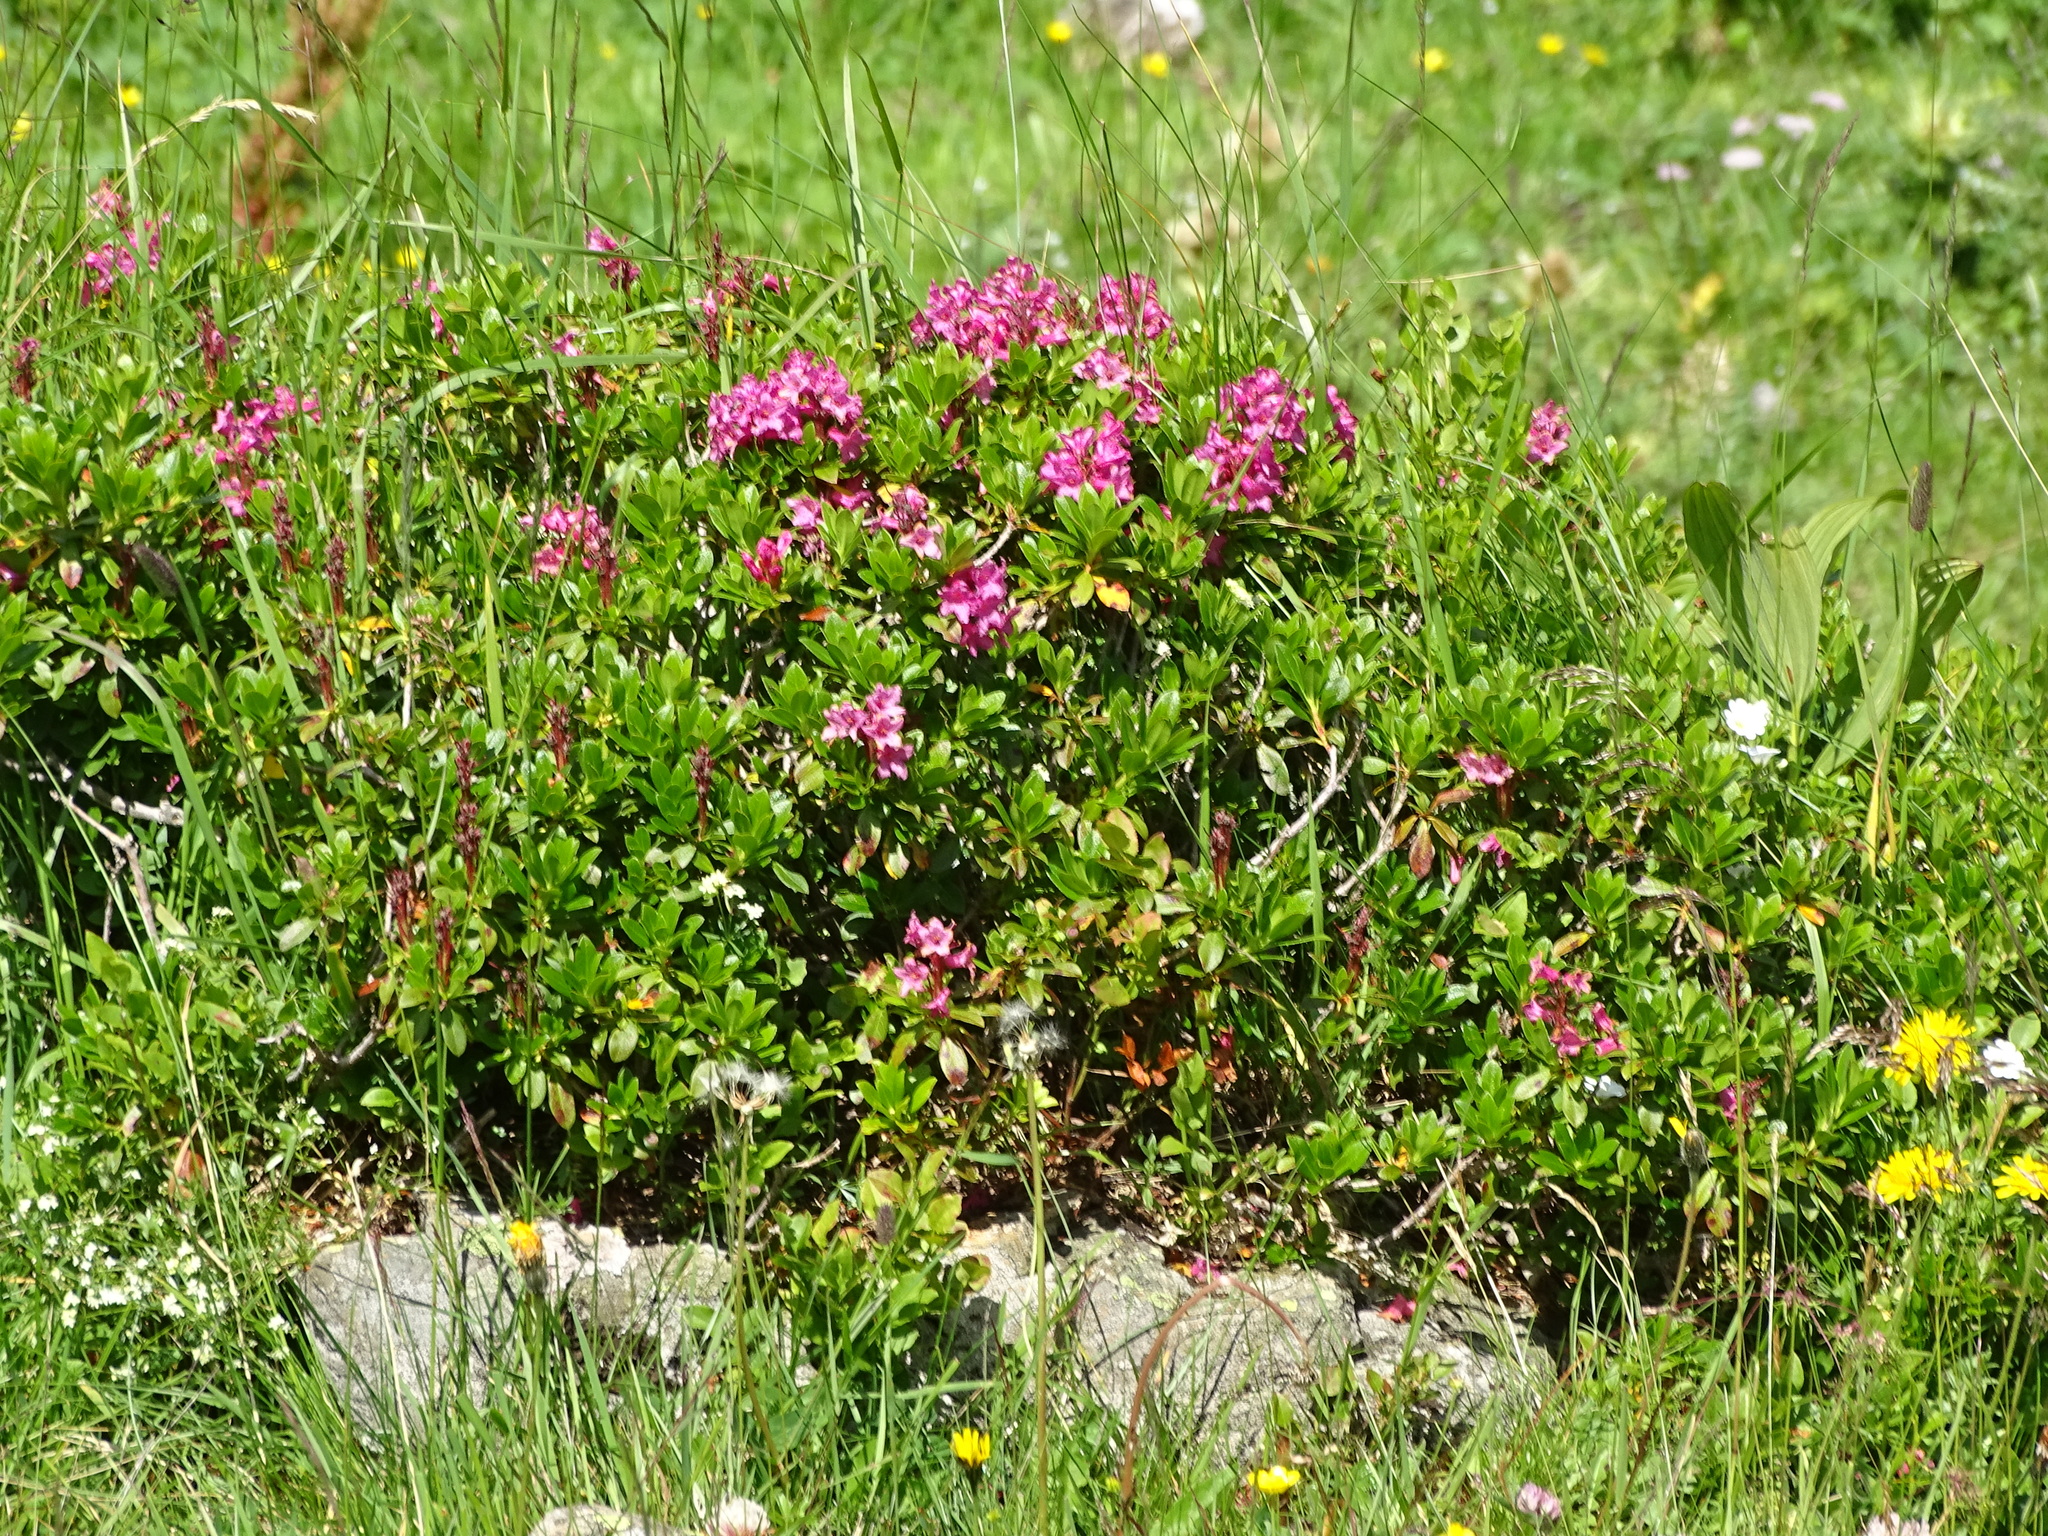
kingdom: Plantae
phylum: Tracheophyta
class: Magnoliopsida
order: Ericales
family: Ericaceae
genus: Rhododendron
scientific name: Rhododendron ferrugineum
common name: Alpenrose
